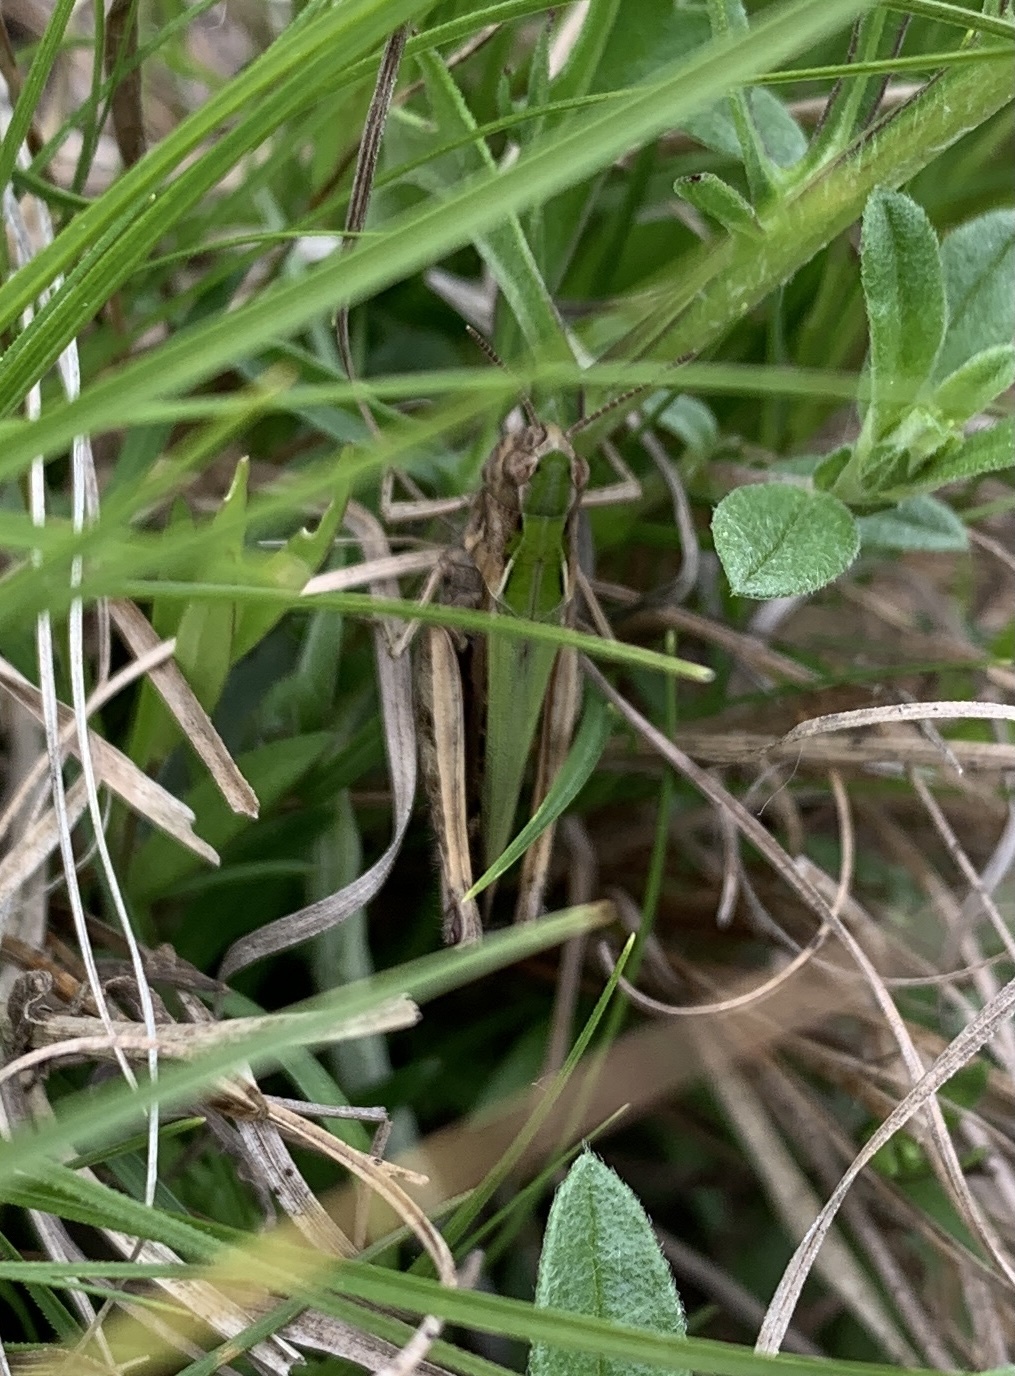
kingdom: Animalia
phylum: Arthropoda
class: Insecta
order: Orthoptera
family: Acrididae
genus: Omocestus
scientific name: Omocestus rufipes
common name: Woodland grasshopper
